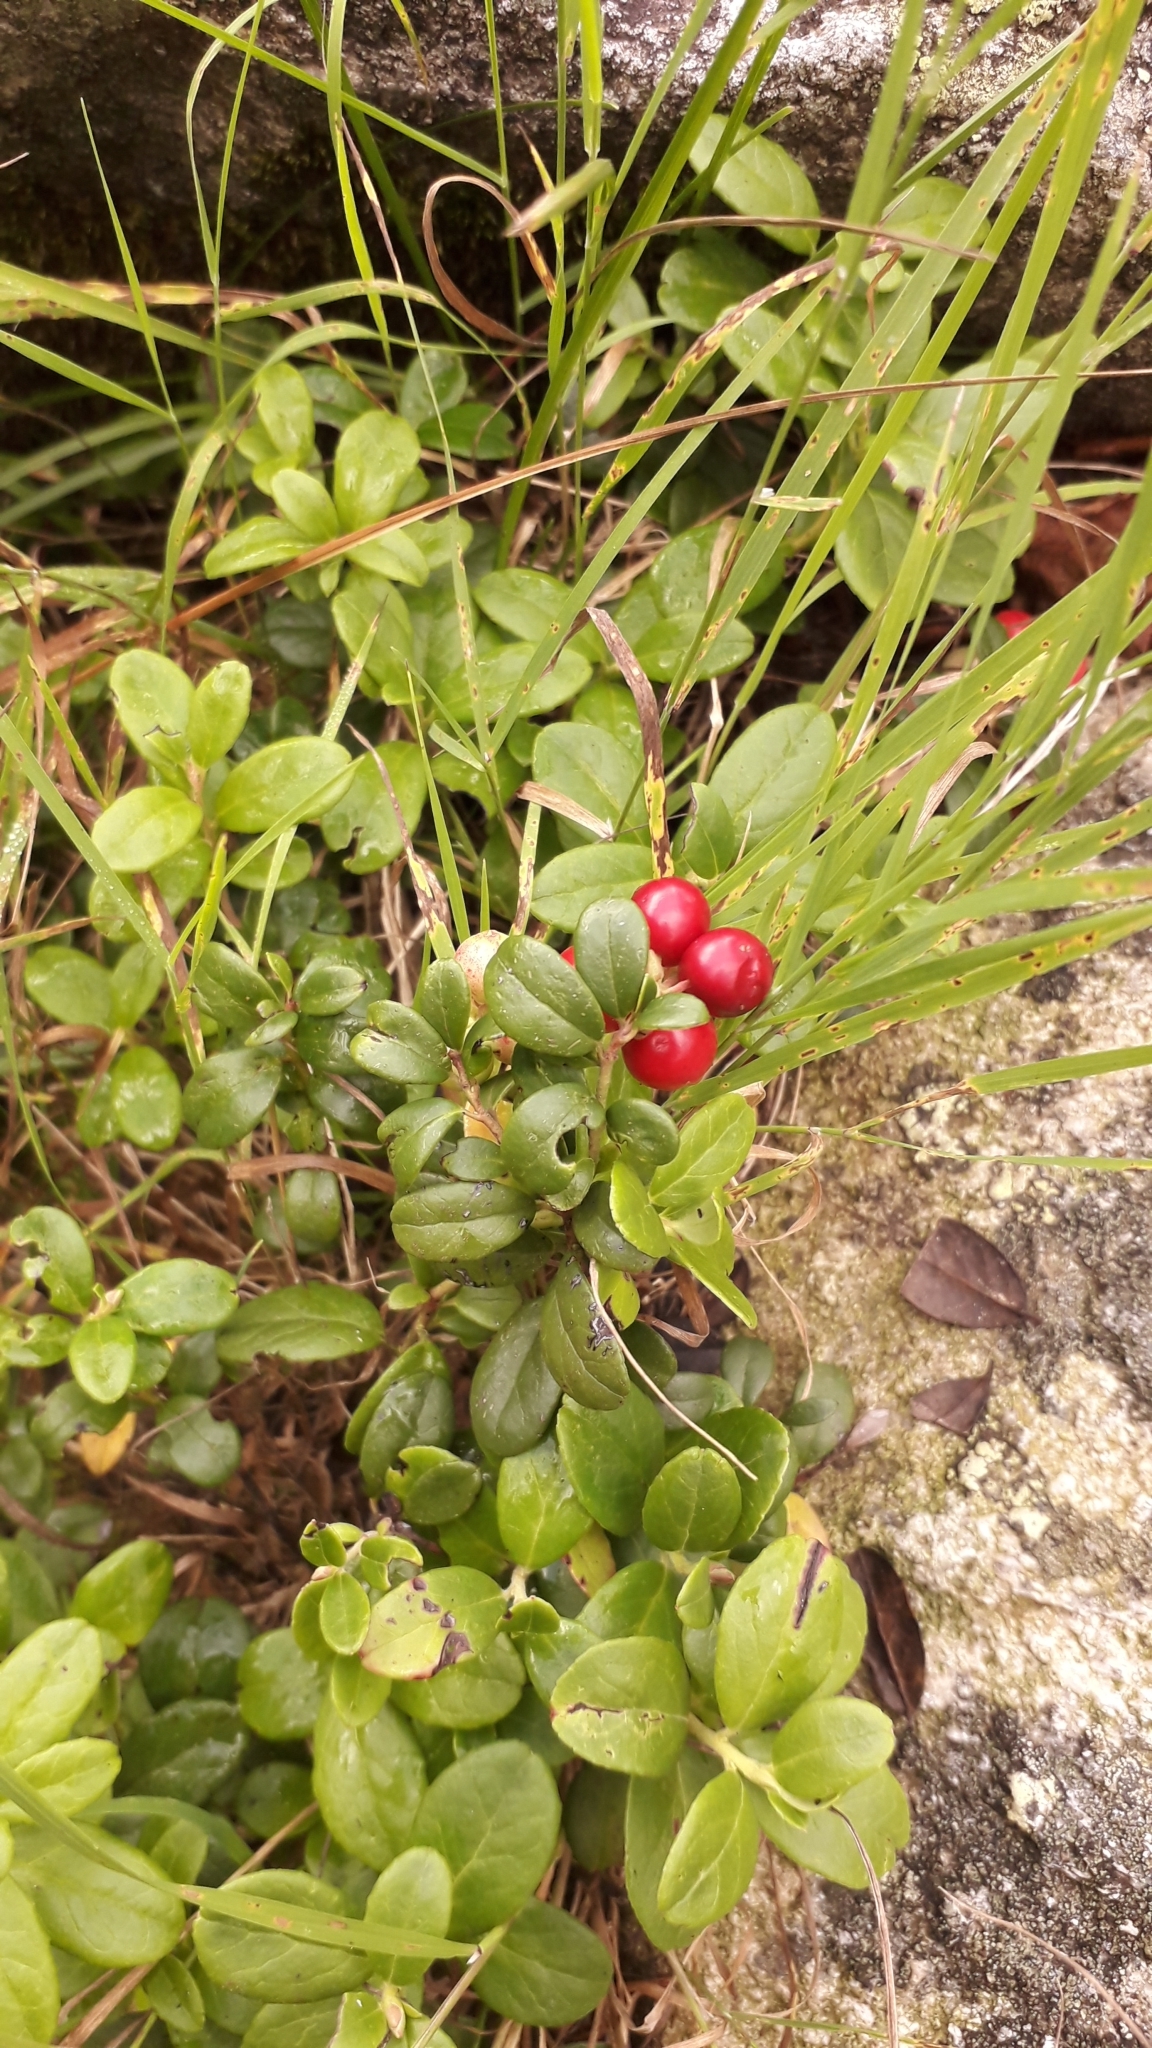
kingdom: Plantae
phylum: Tracheophyta
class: Magnoliopsida
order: Ericales
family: Ericaceae
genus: Vaccinium
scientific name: Vaccinium vitis-idaea
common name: Cowberry
